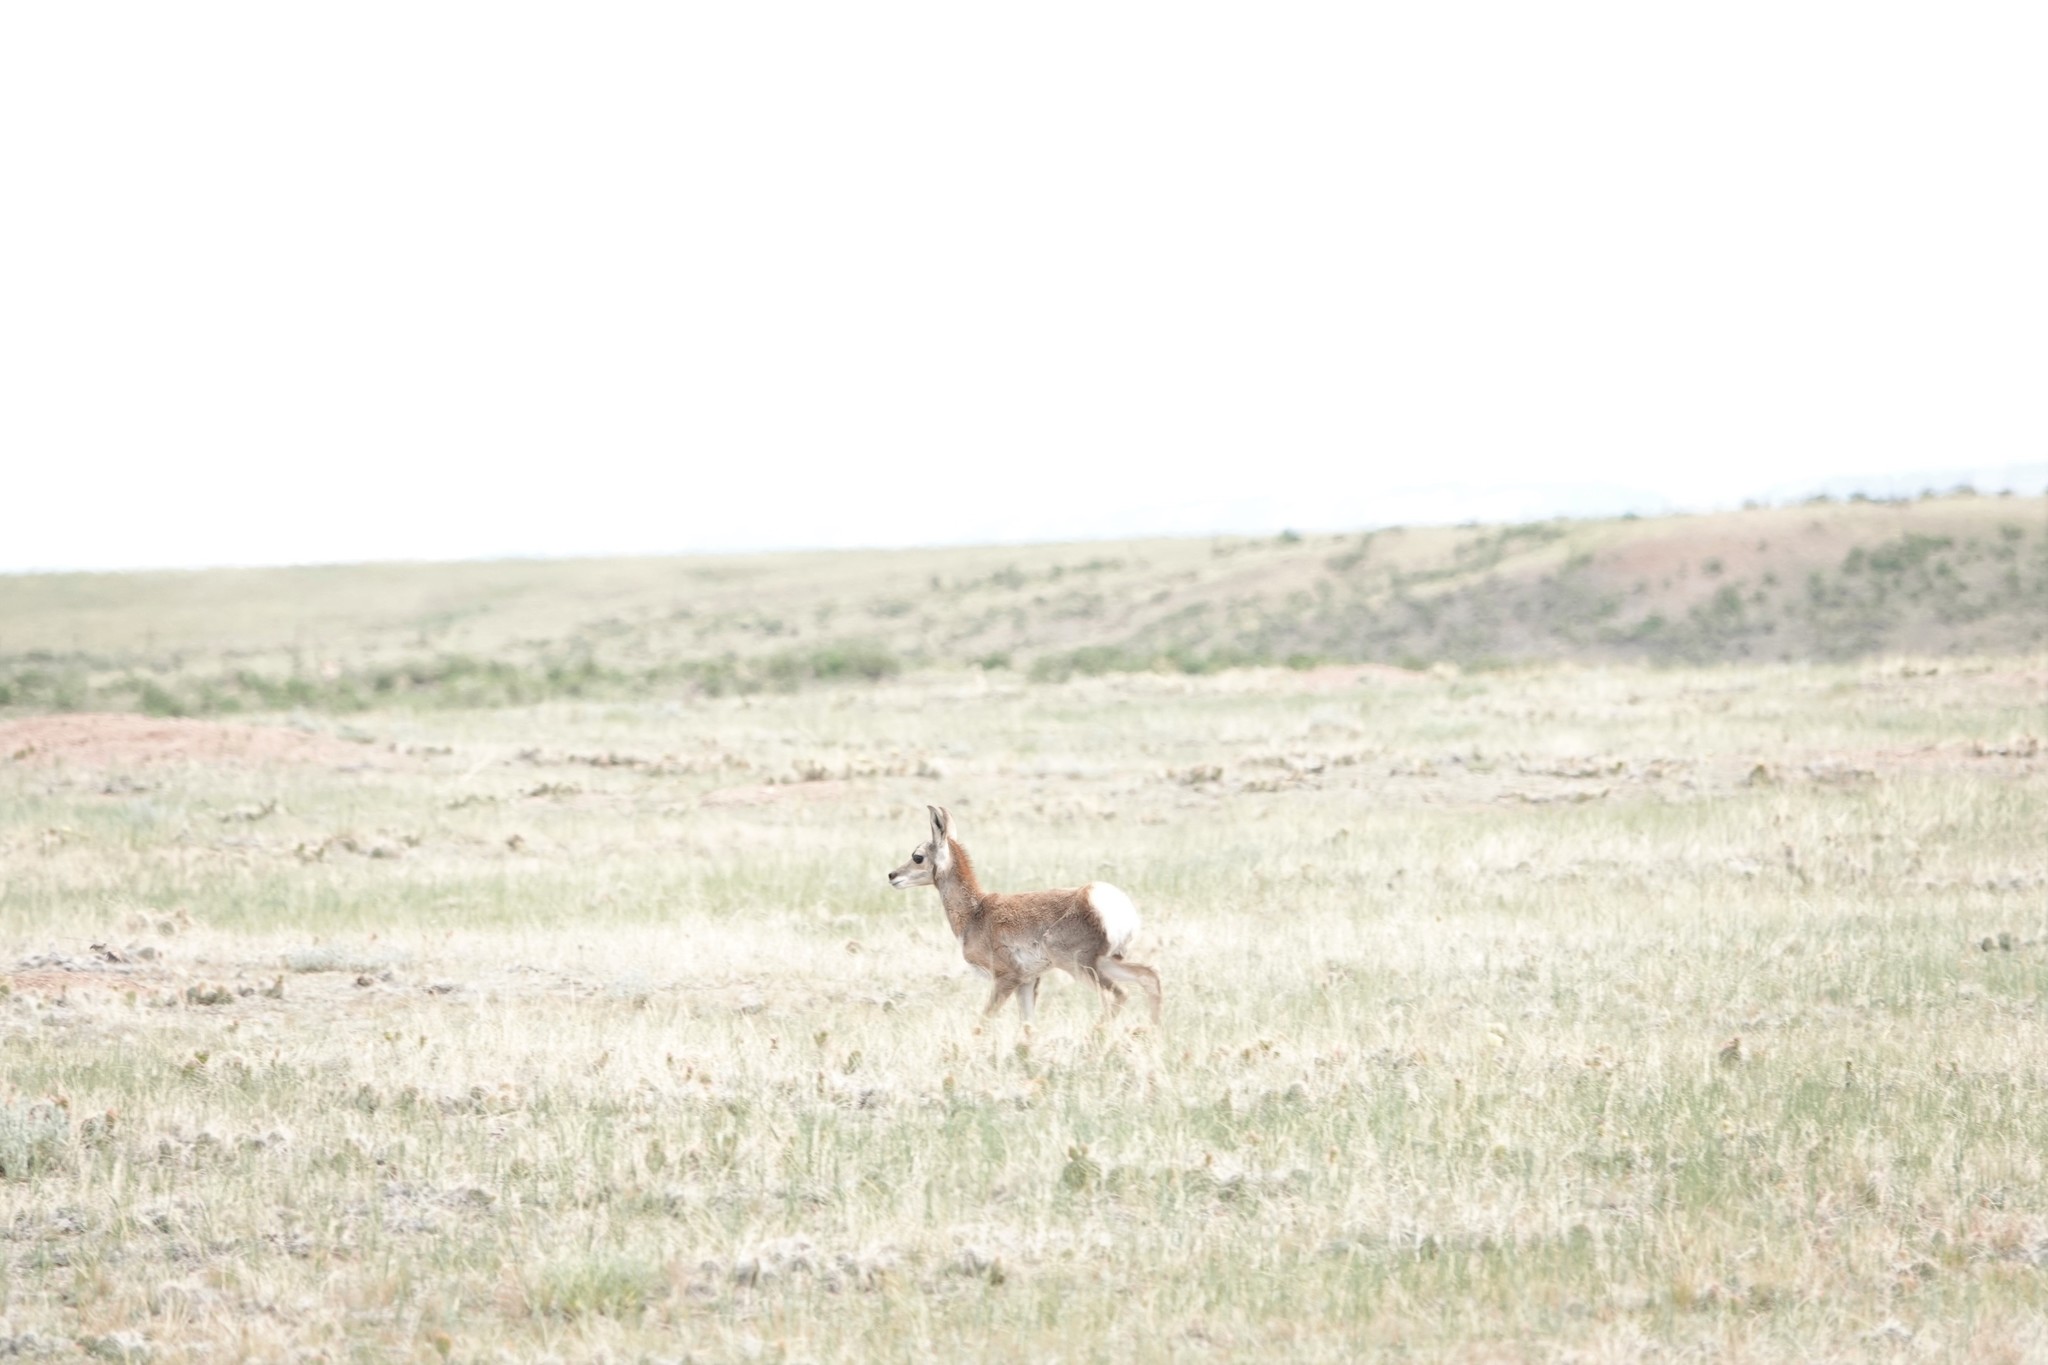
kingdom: Animalia
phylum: Chordata
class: Mammalia
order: Artiodactyla
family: Antilocapridae
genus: Antilocapra
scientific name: Antilocapra americana
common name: Pronghorn
